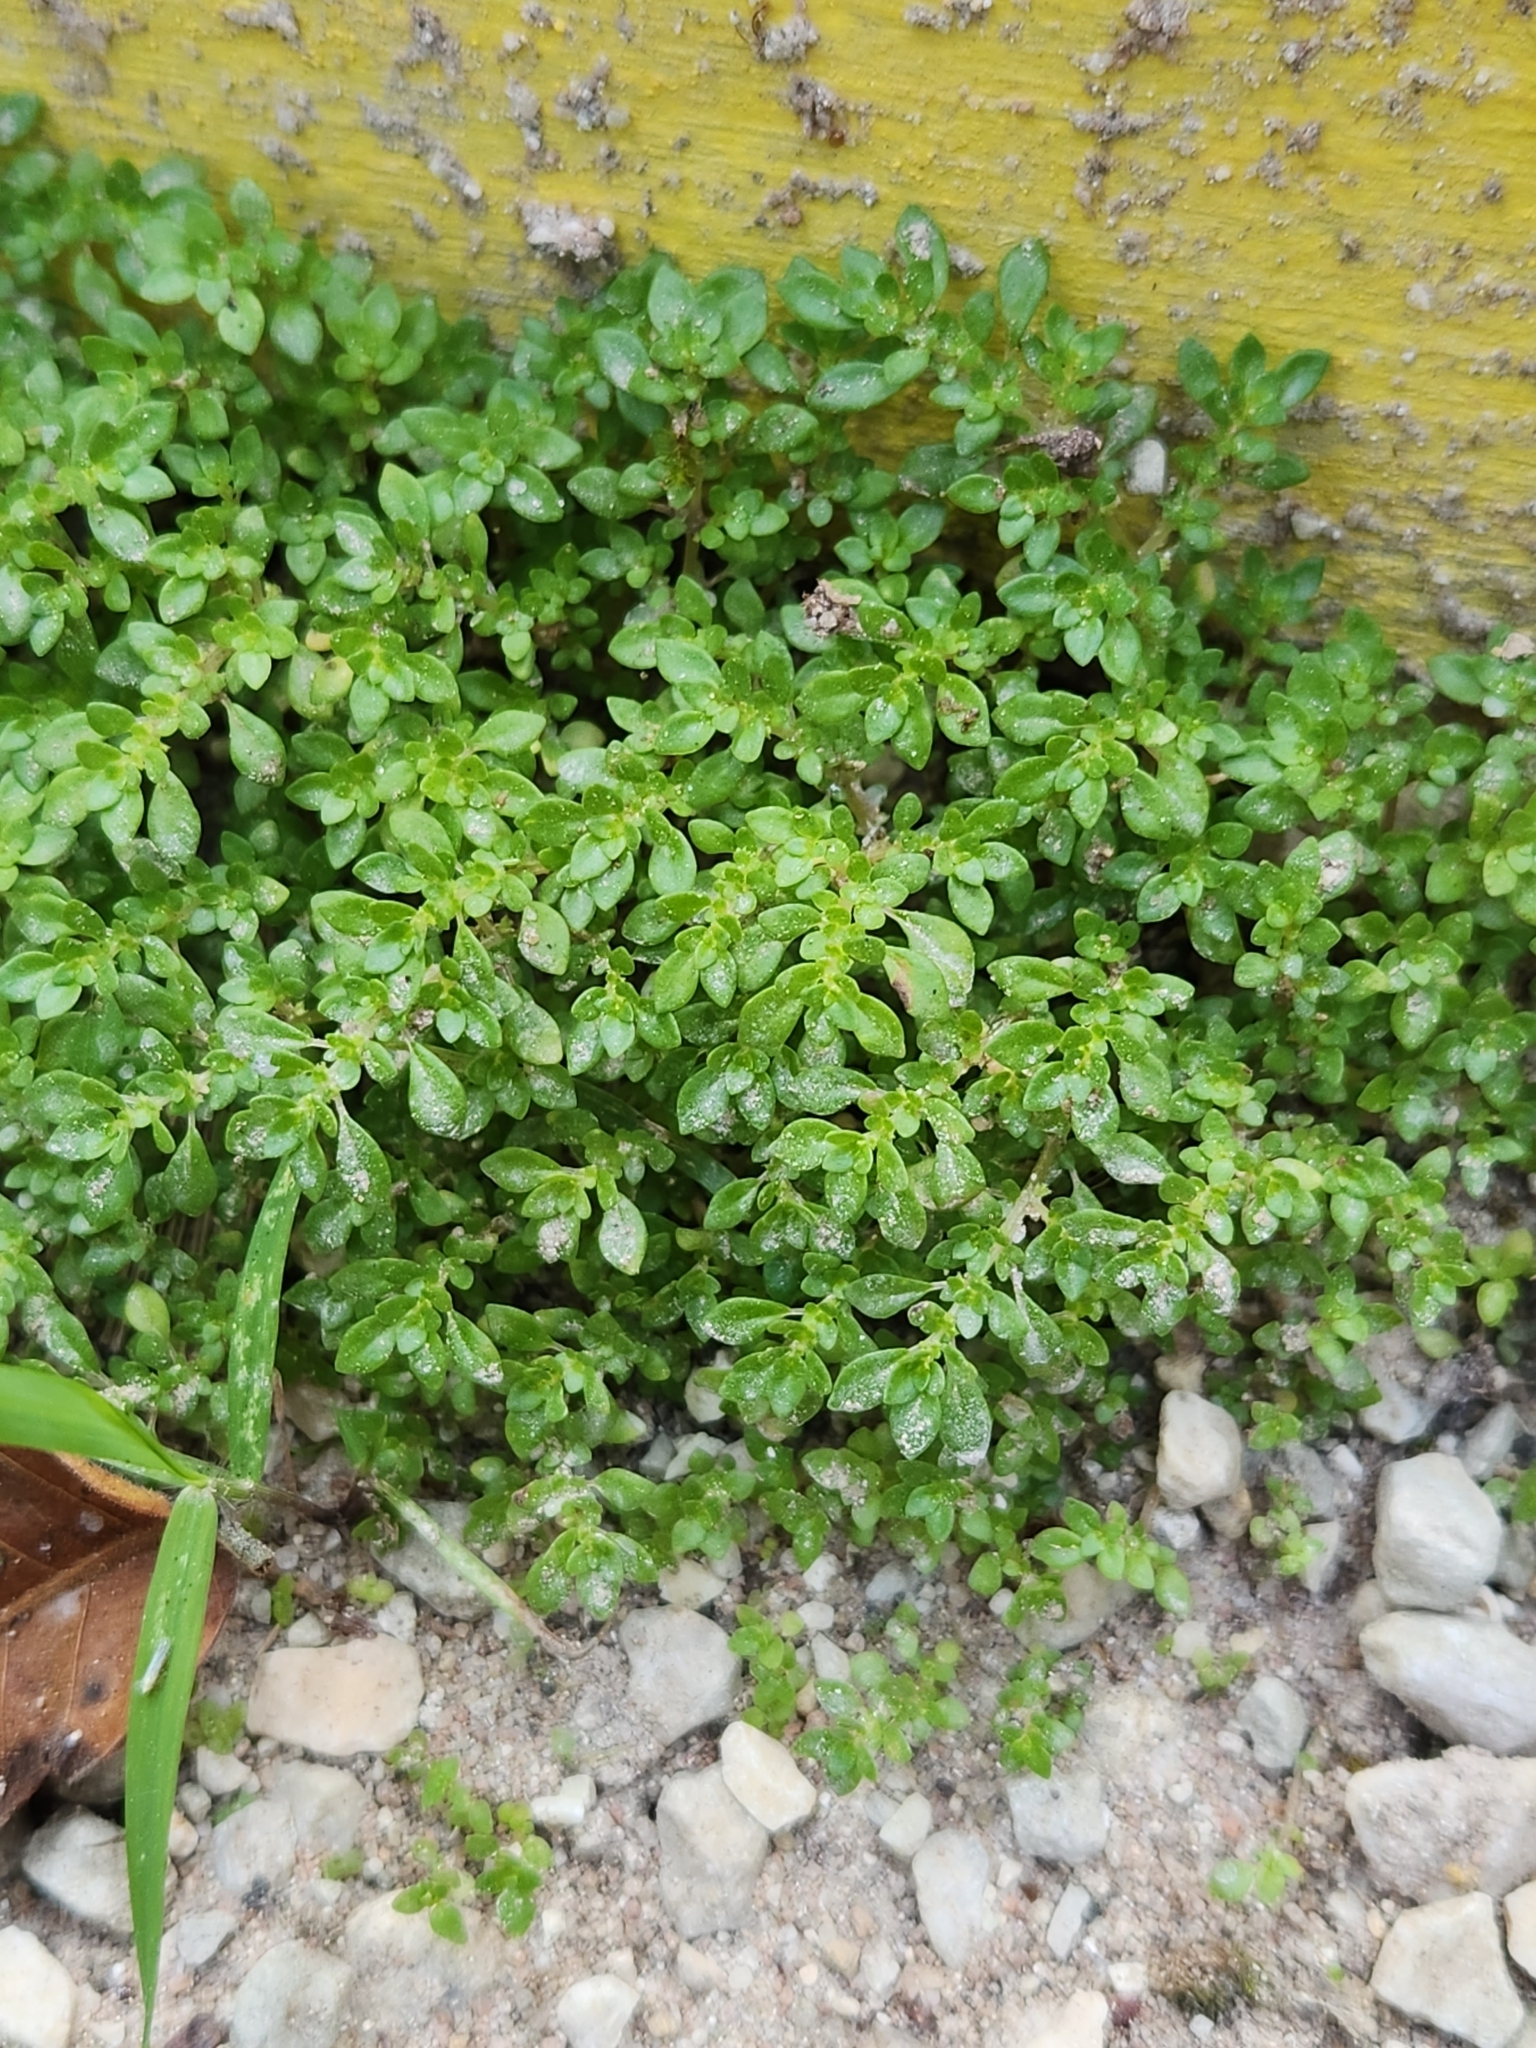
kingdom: Plantae
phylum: Tracheophyta
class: Magnoliopsida
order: Rosales
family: Urticaceae
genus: Pilea
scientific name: Pilea microphylla
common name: Artillery-plant
